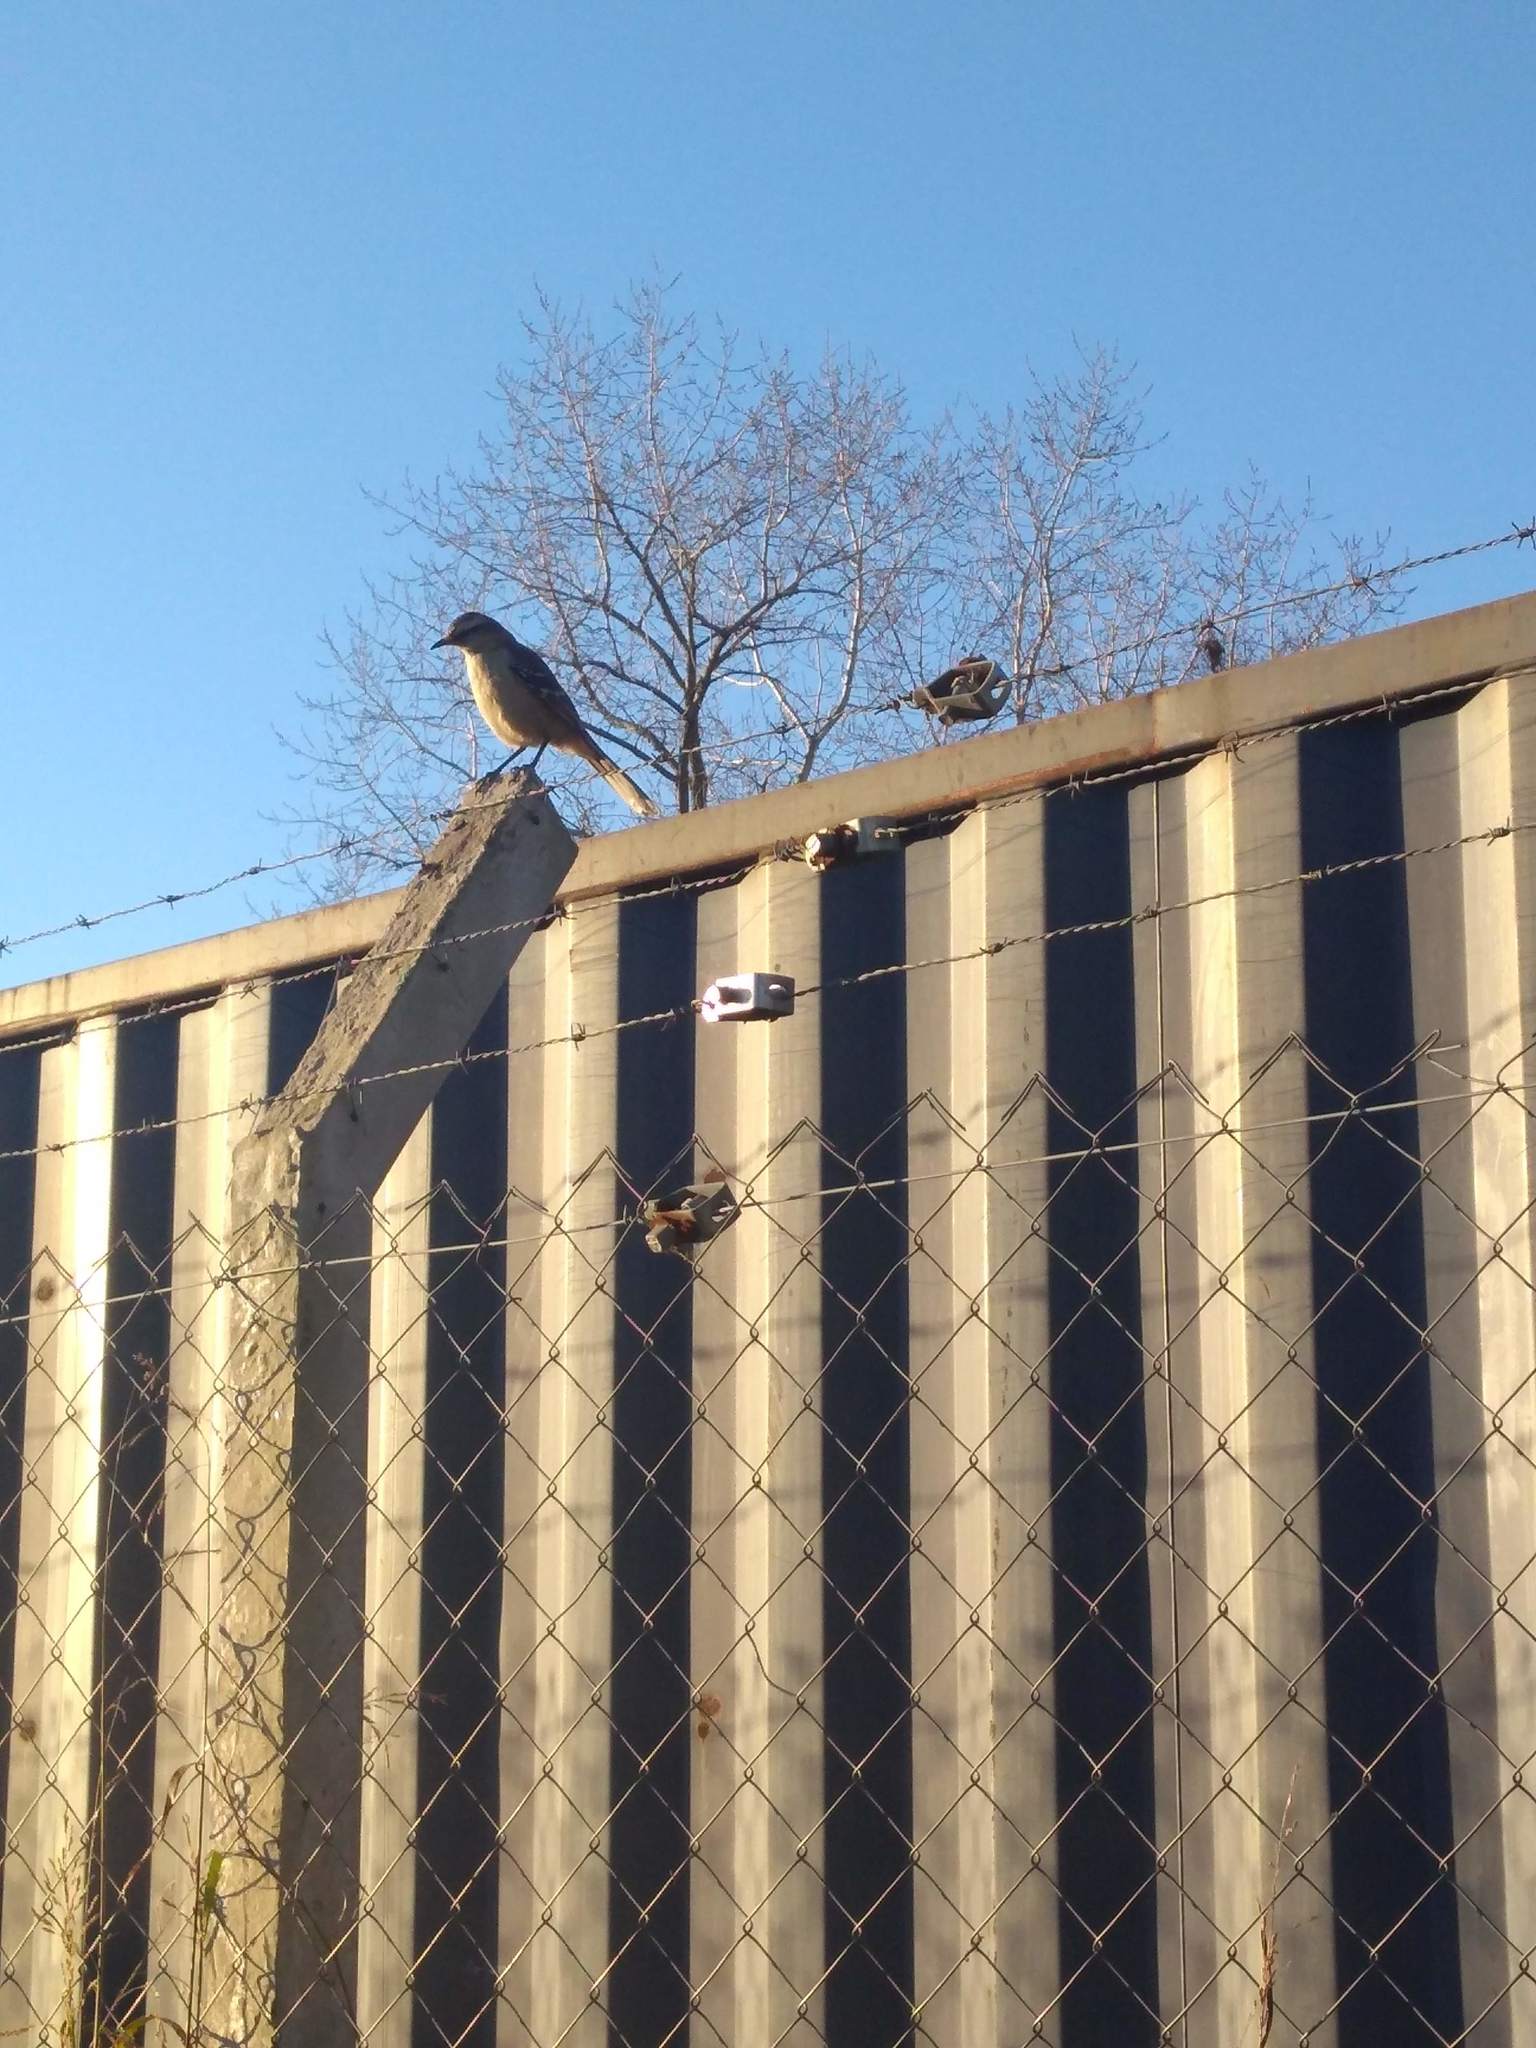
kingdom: Animalia
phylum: Chordata
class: Aves
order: Passeriformes
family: Mimidae
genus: Mimus
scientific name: Mimus saturninus
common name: Chalk-browed mockingbird
